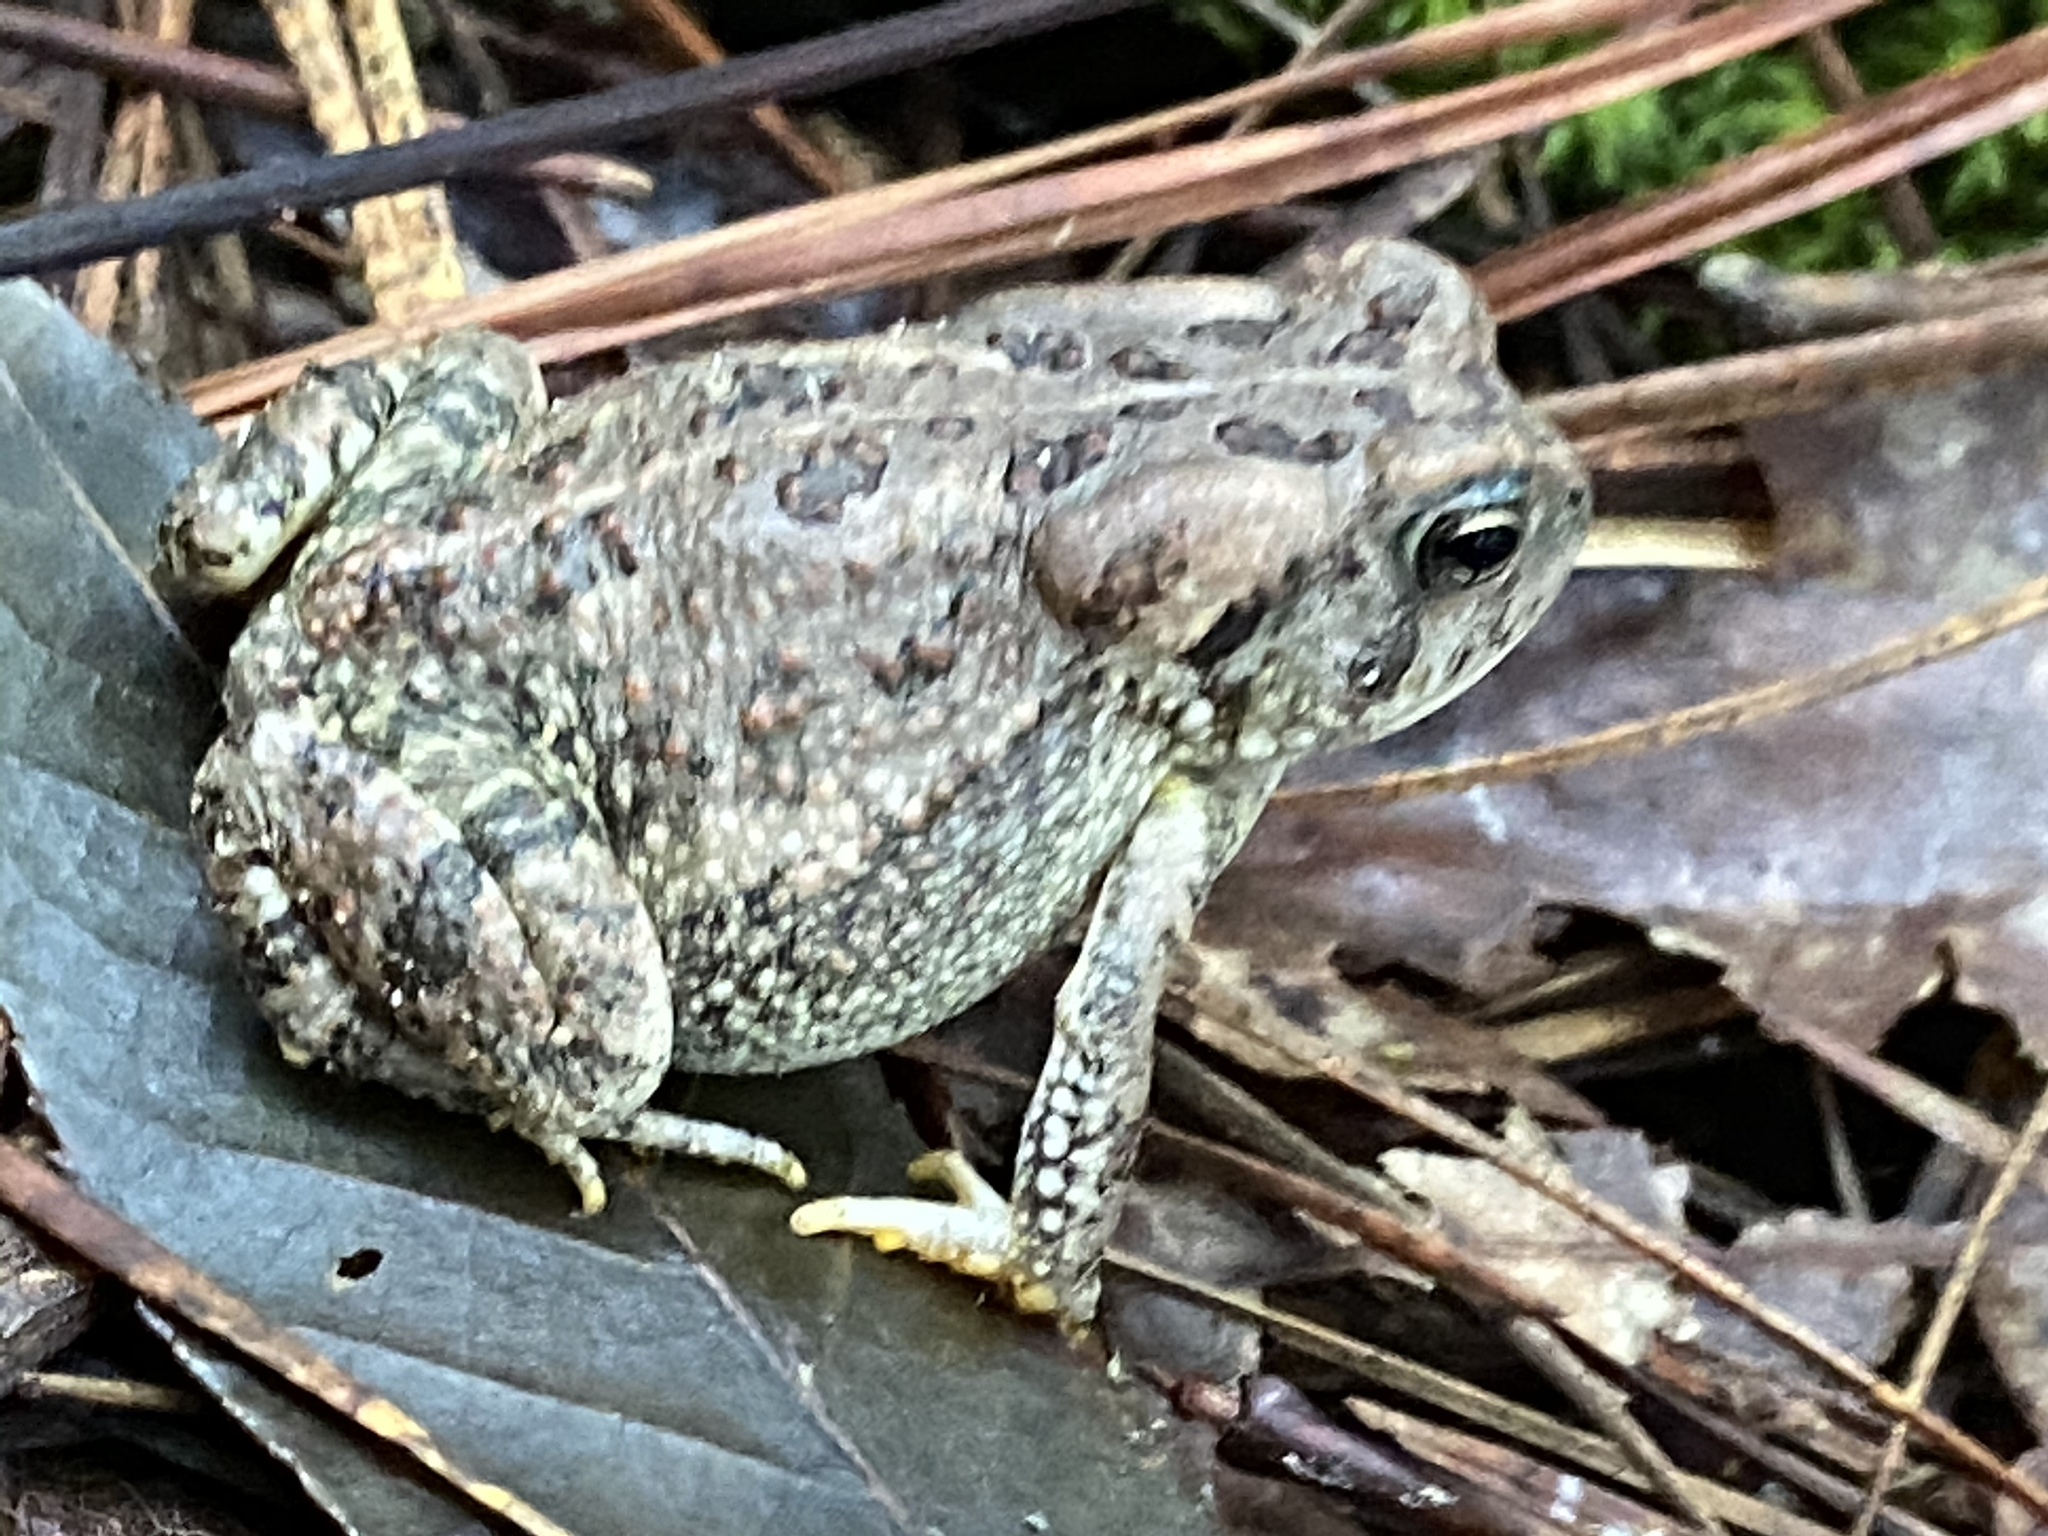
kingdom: Animalia
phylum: Chordata
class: Amphibia
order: Anura
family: Bufonidae
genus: Anaxyrus
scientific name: Anaxyrus fowleri
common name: Fowler's toad
